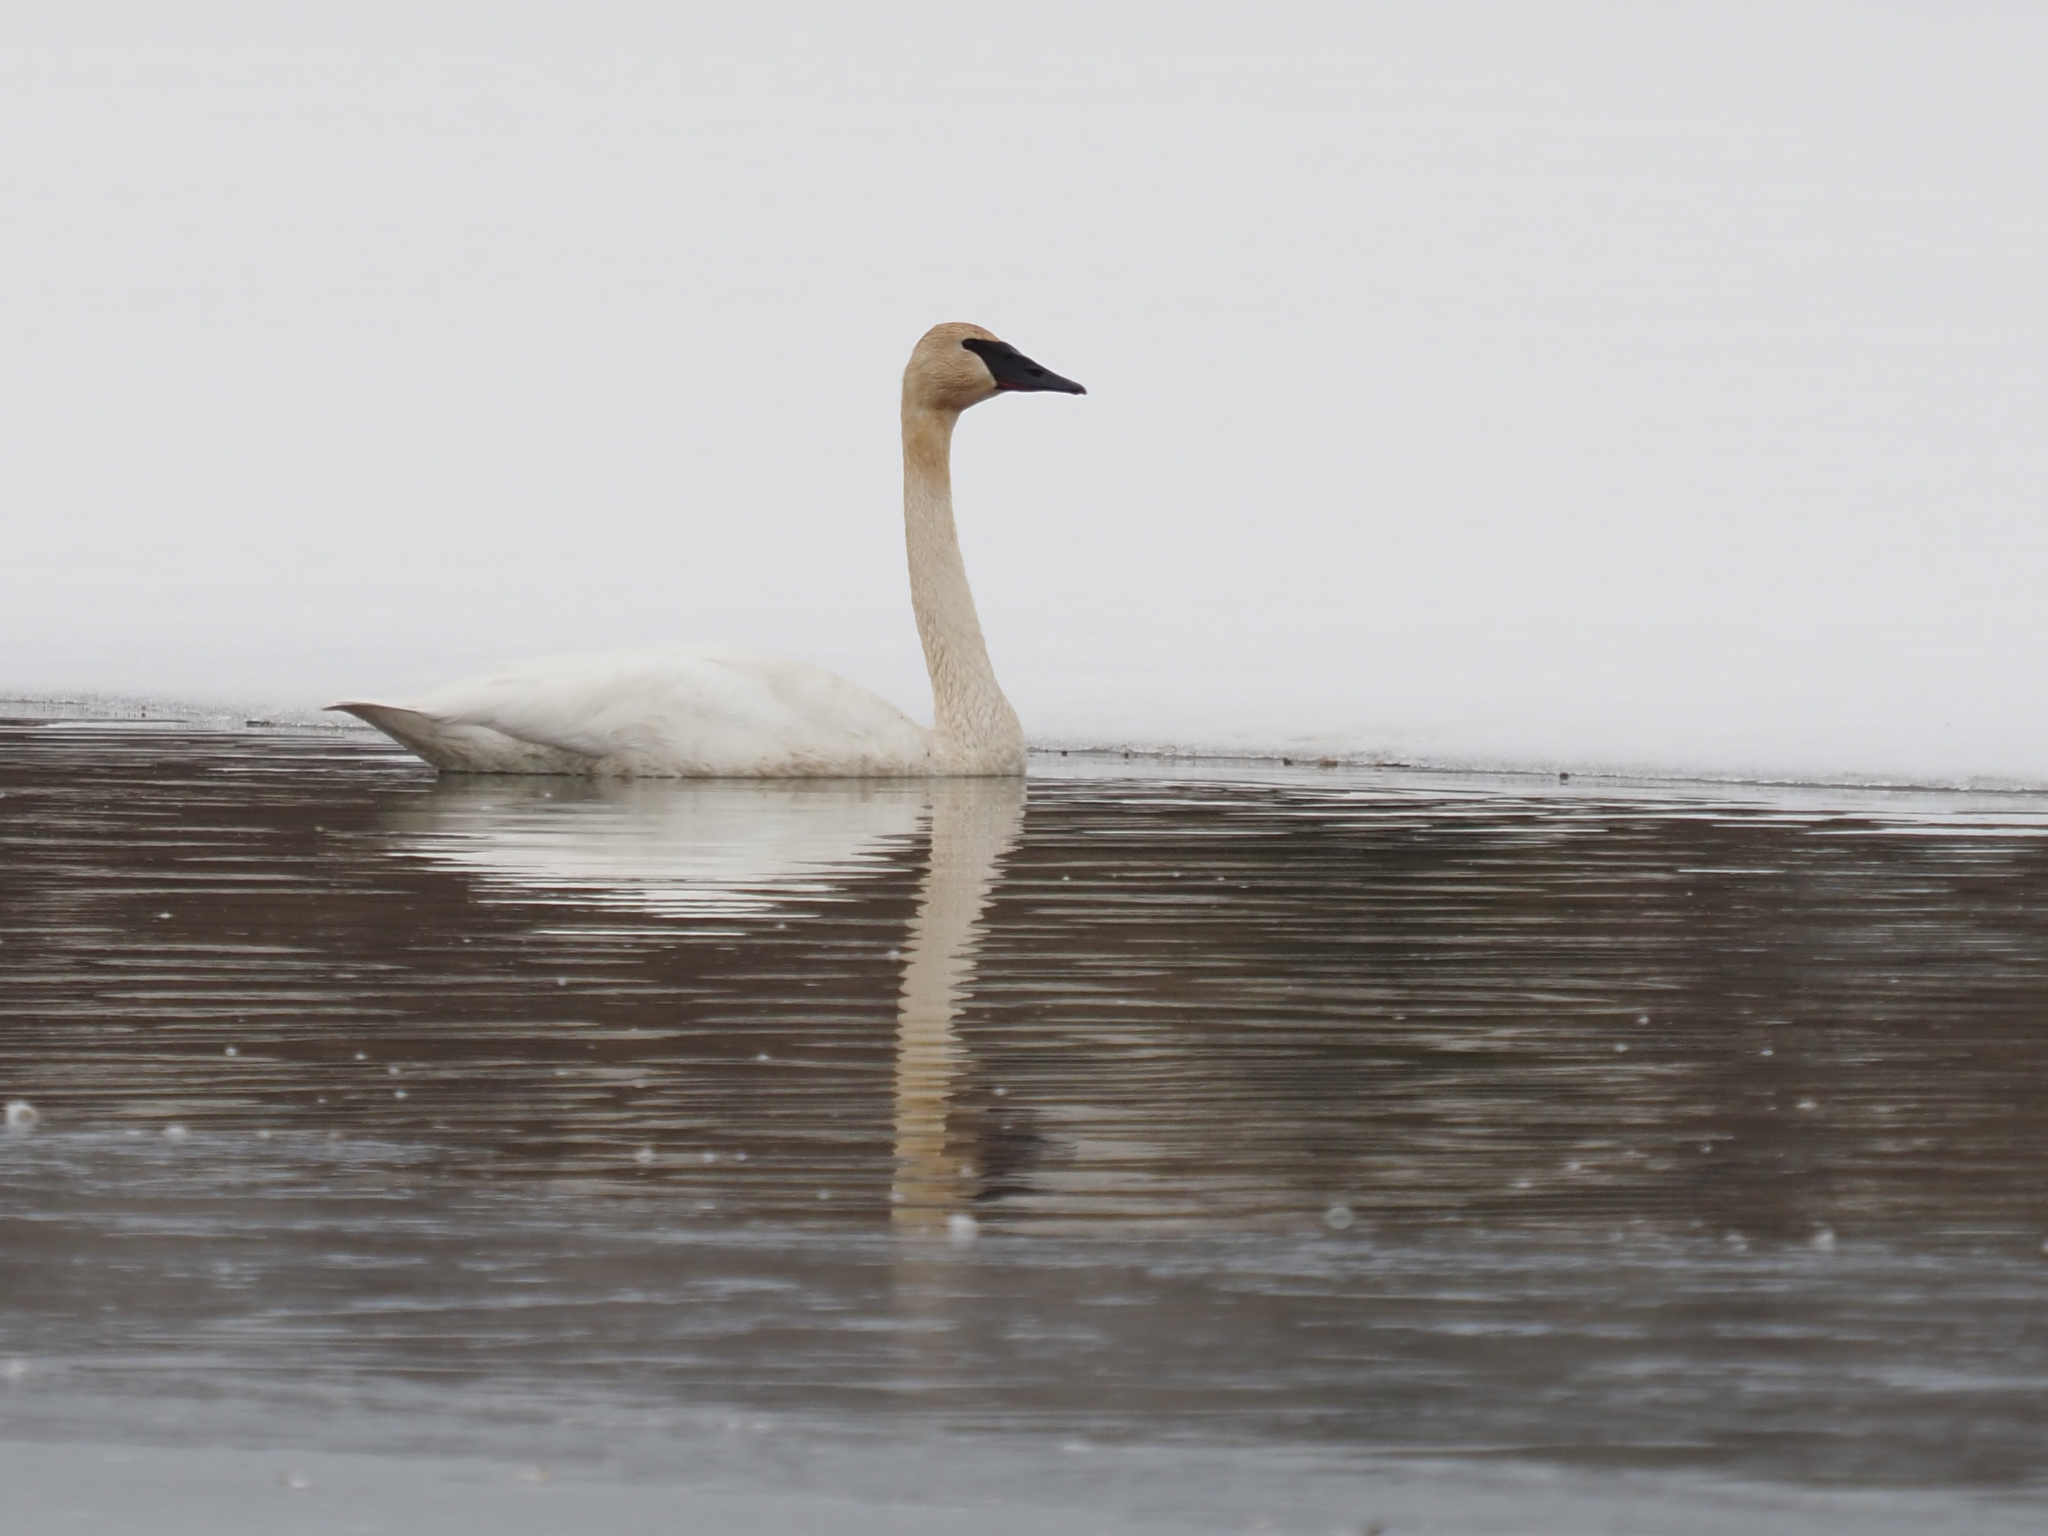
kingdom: Animalia
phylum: Chordata
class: Aves
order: Anseriformes
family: Anatidae
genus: Cygnus
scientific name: Cygnus buccinator
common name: Trumpeter swan
